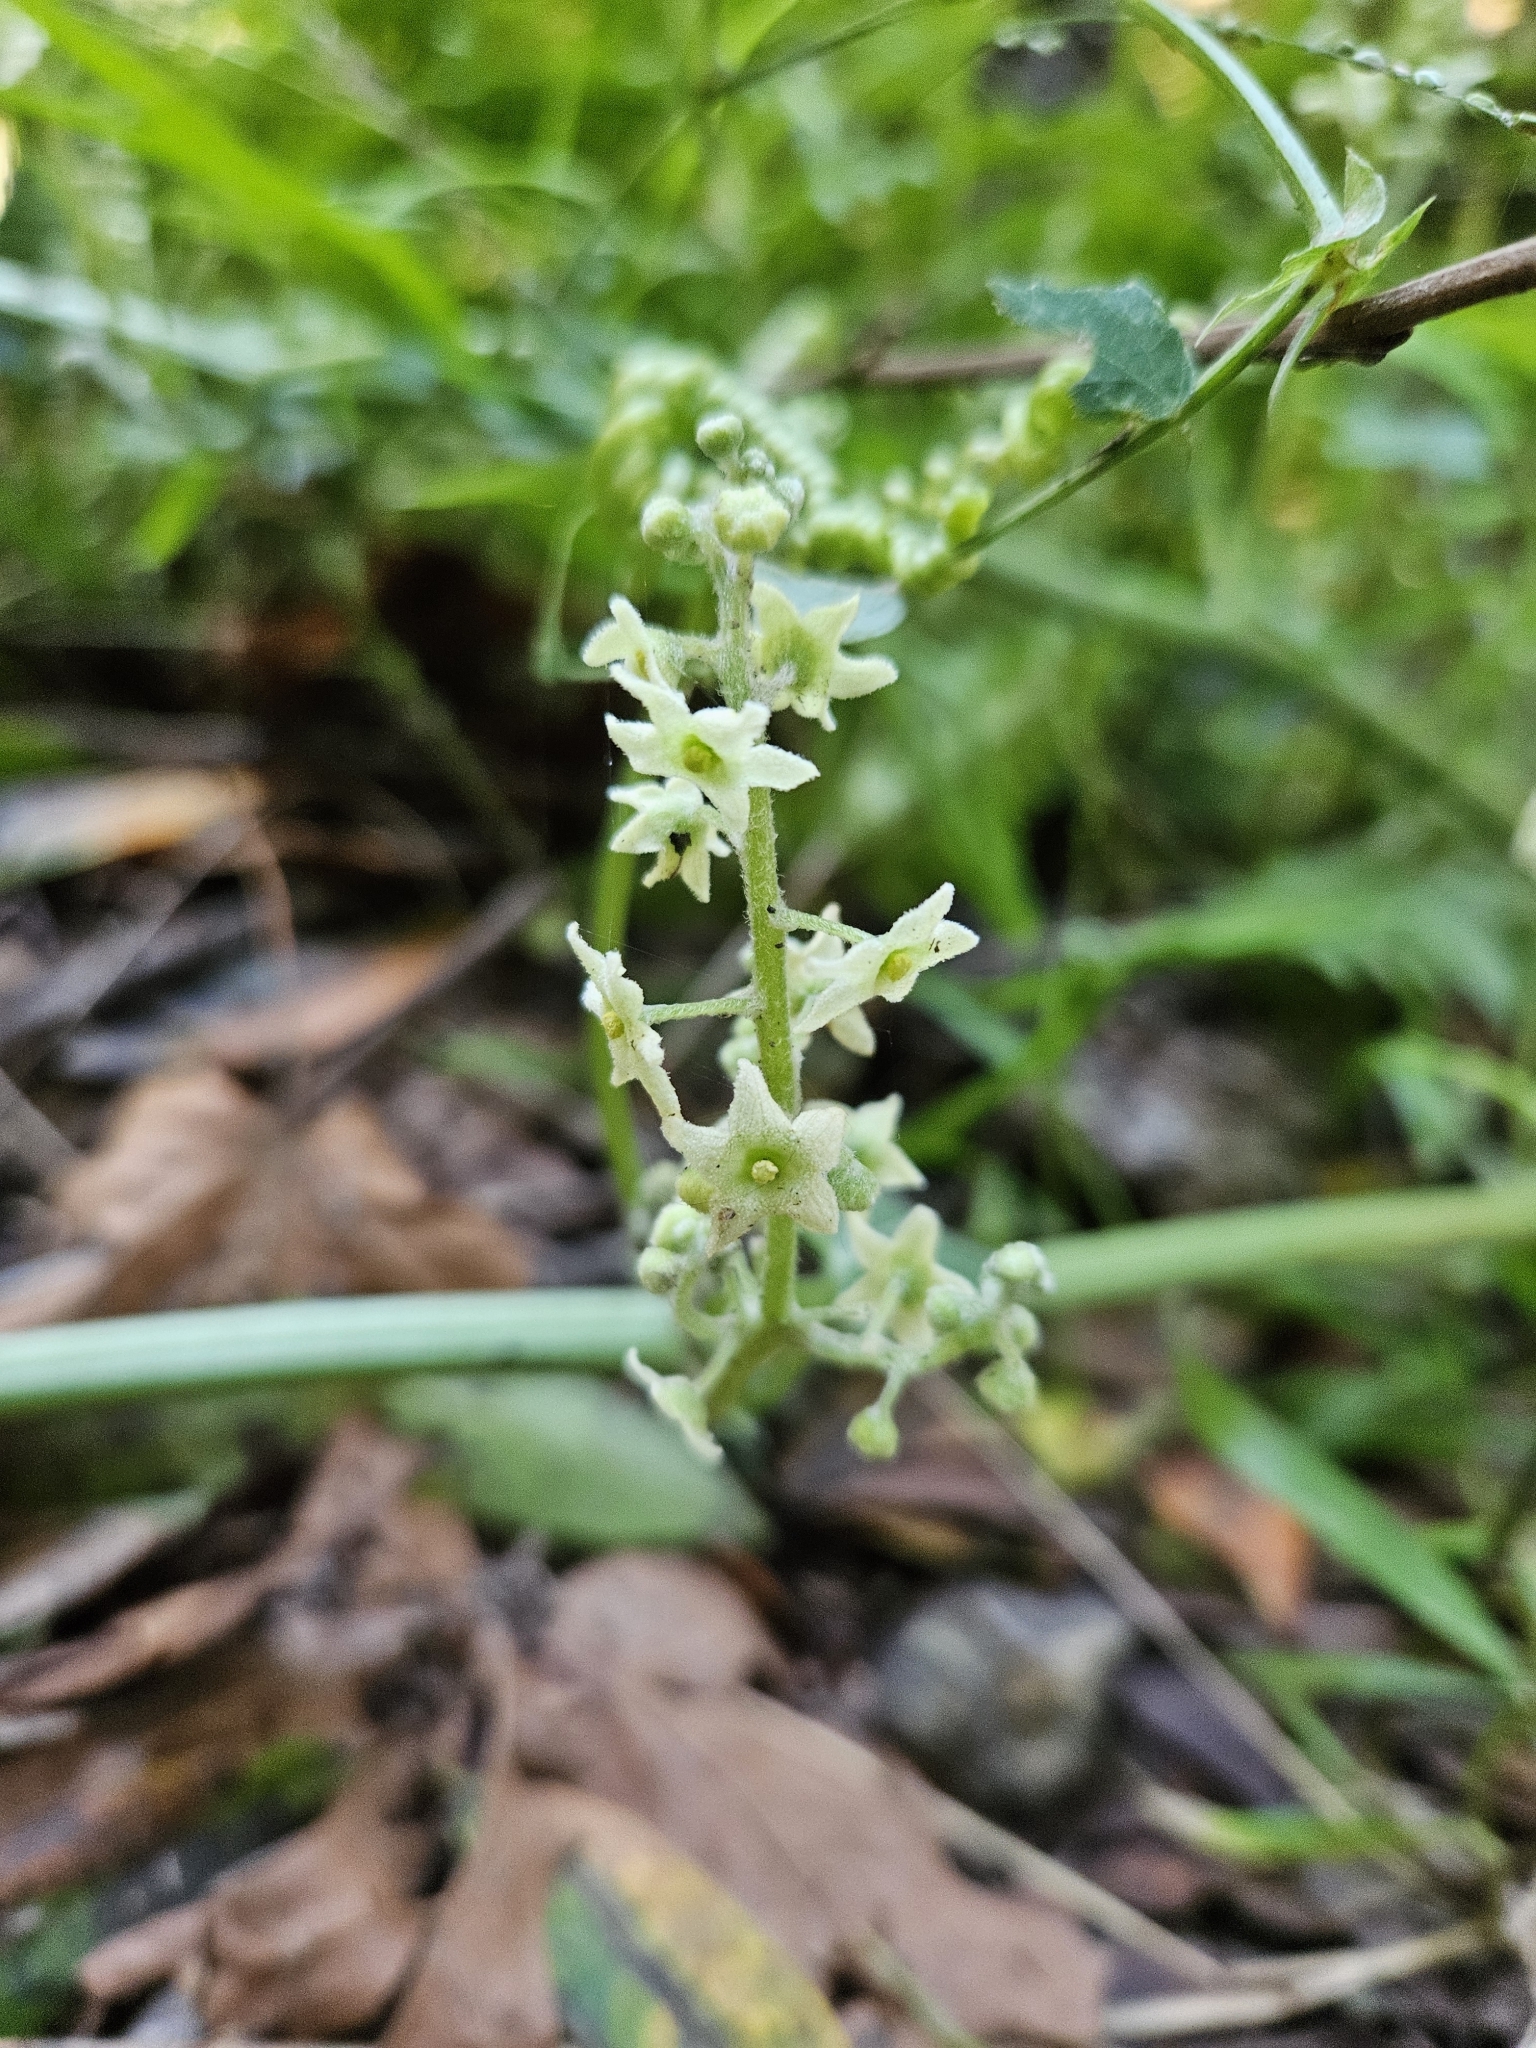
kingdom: Plantae
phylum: Tracheophyta
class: Magnoliopsida
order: Cucurbitales
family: Cucurbitaceae
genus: Marah
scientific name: Marah fabacea
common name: California manroot
